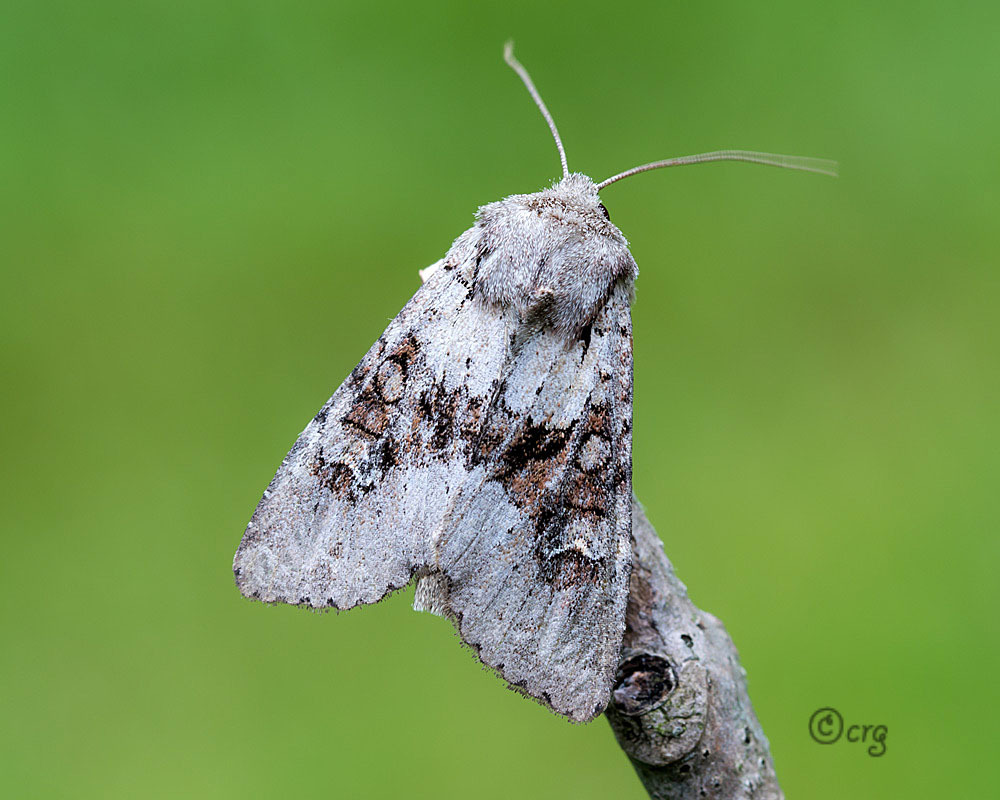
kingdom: Animalia
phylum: Arthropoda
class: Insecta
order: Lepidoptera
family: Noctuidae
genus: Apamea
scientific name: Apamea sordens
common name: Rustic shoulder-knot
